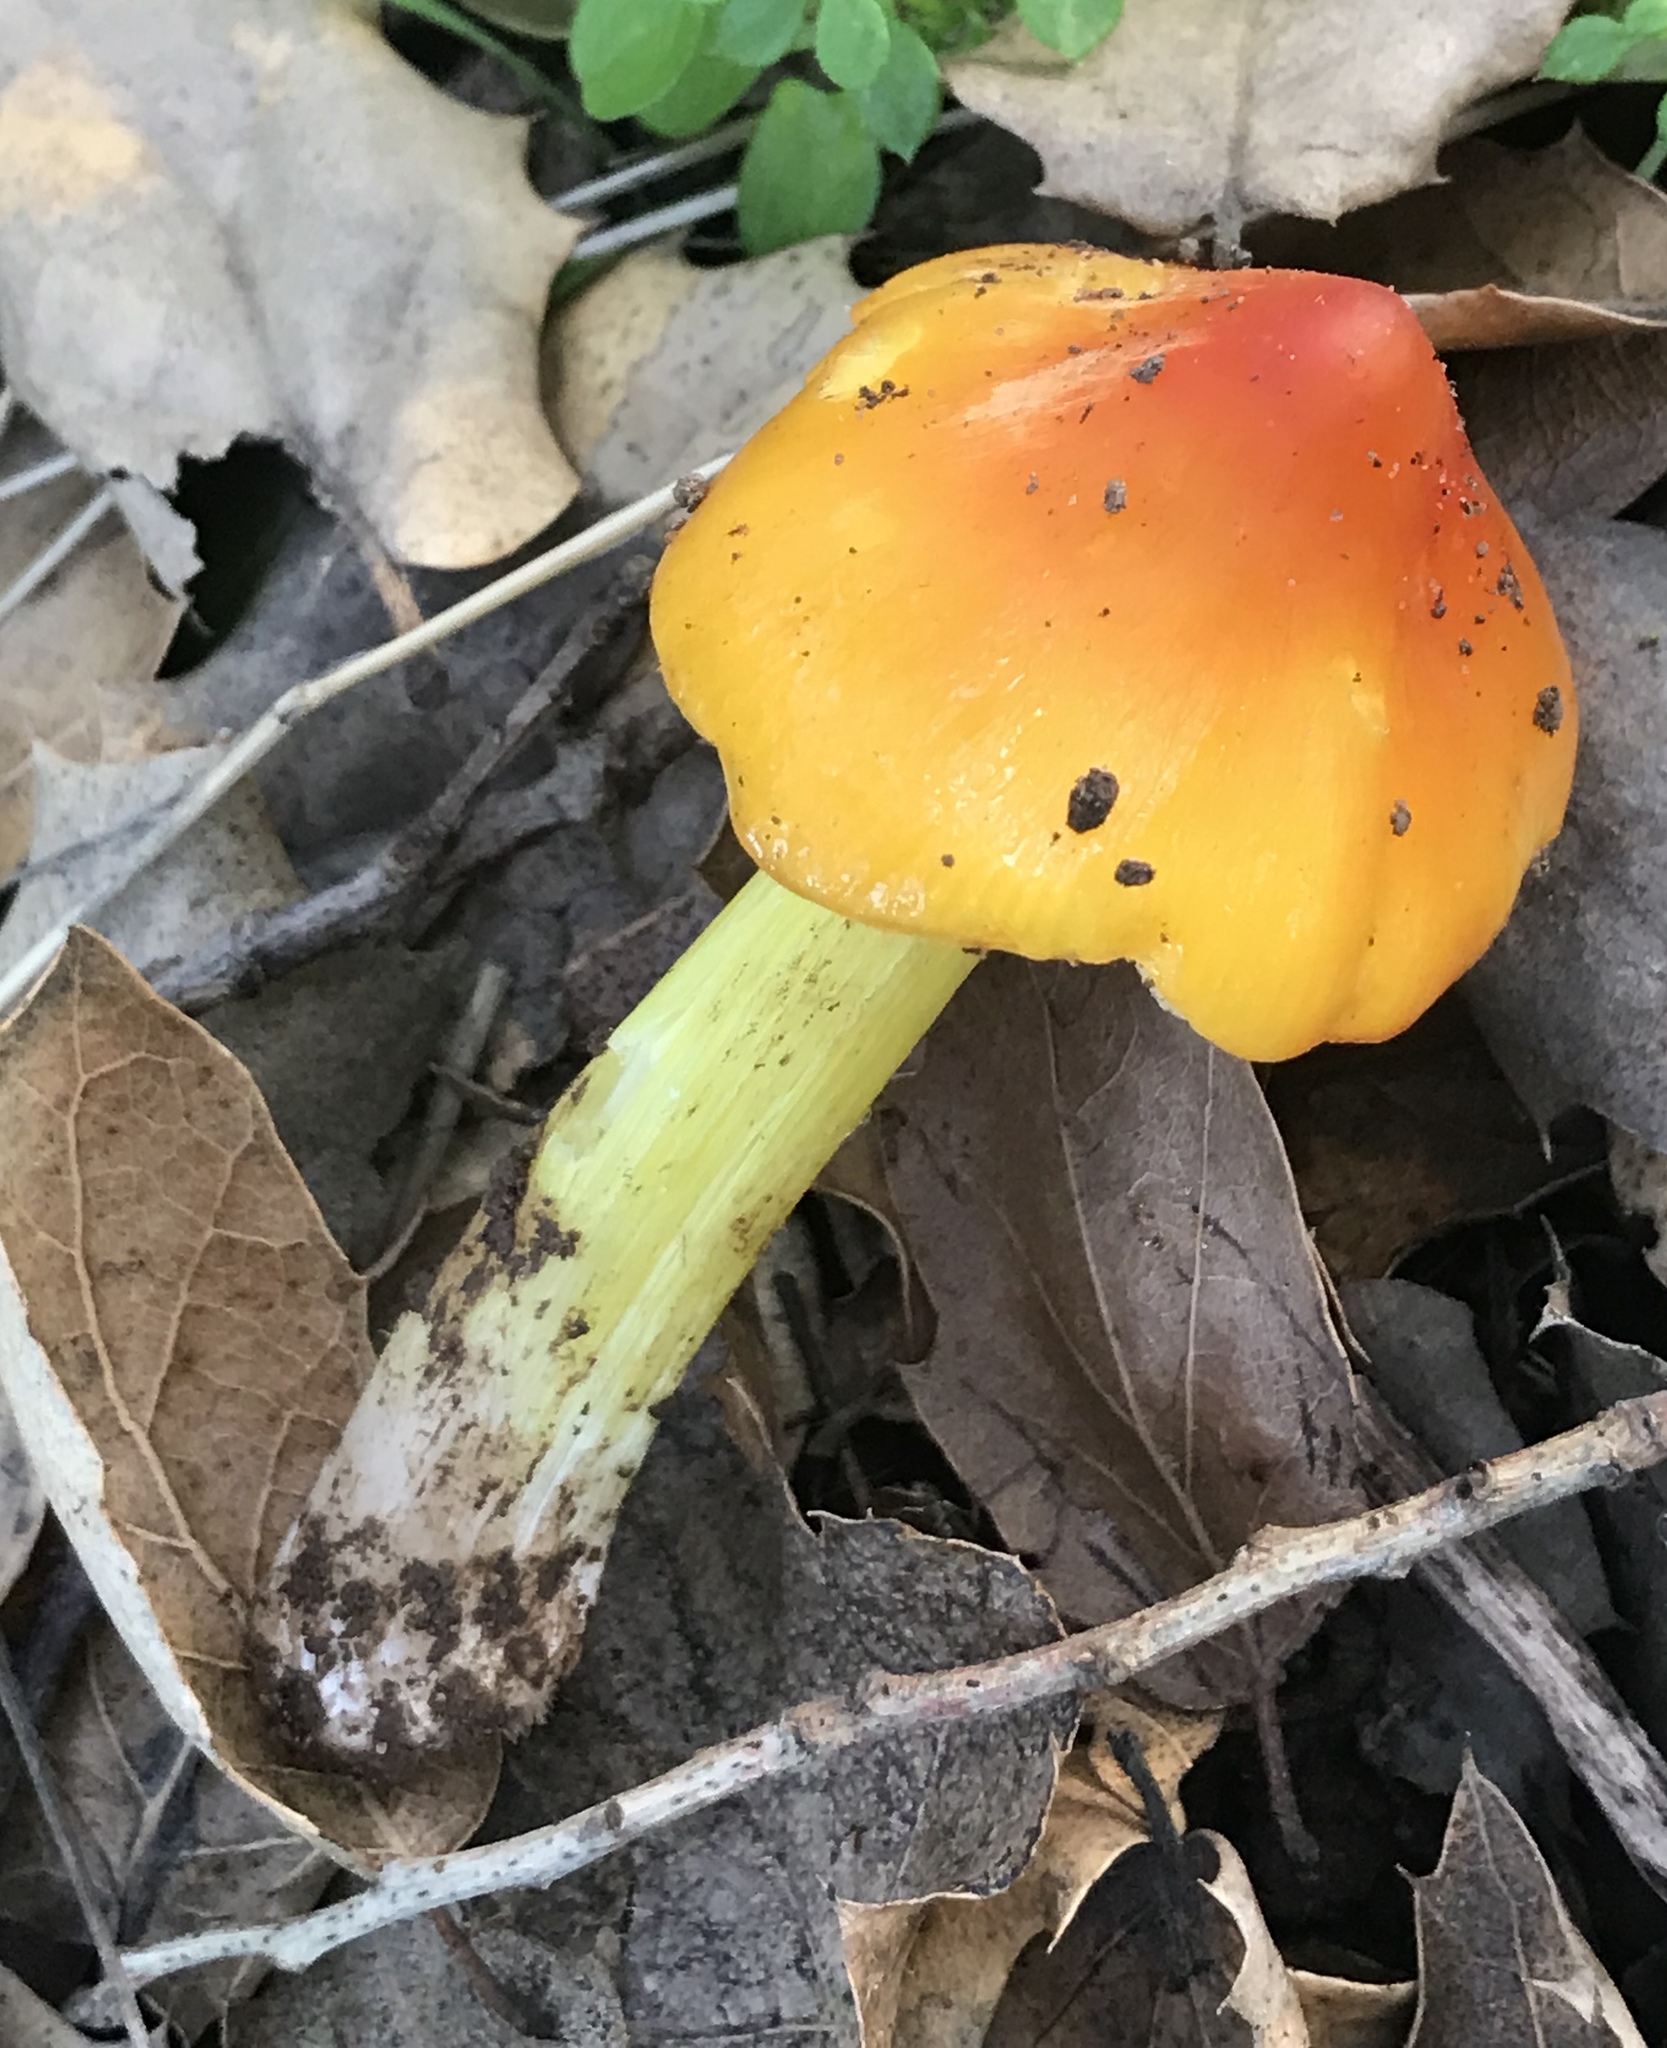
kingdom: Fungi
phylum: Basidiomycota
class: Agaricomycetes
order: Agaricales
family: Hygrophoraceae
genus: Hygrocybe
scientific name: Hygrocybe acutoconica
